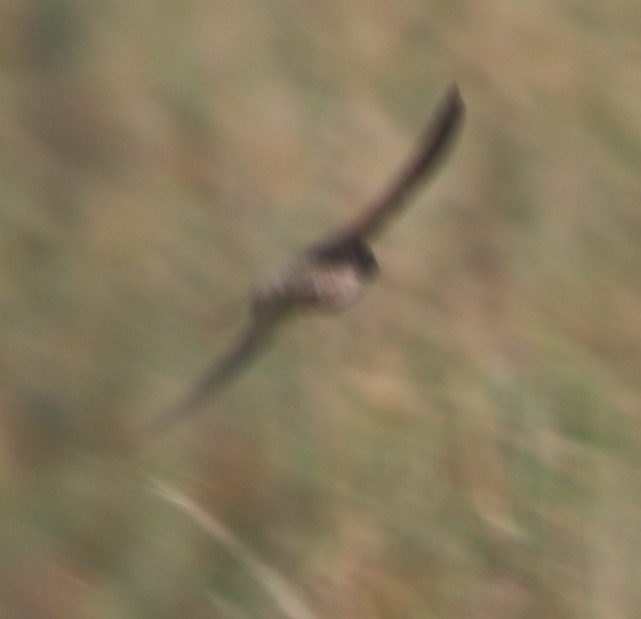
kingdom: Animalia
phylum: Chordata
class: Aves
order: Passeriformes
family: Hirundinidae
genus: Ptyonoprogne
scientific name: Ptyonoprogne fuligula
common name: Rock martin
